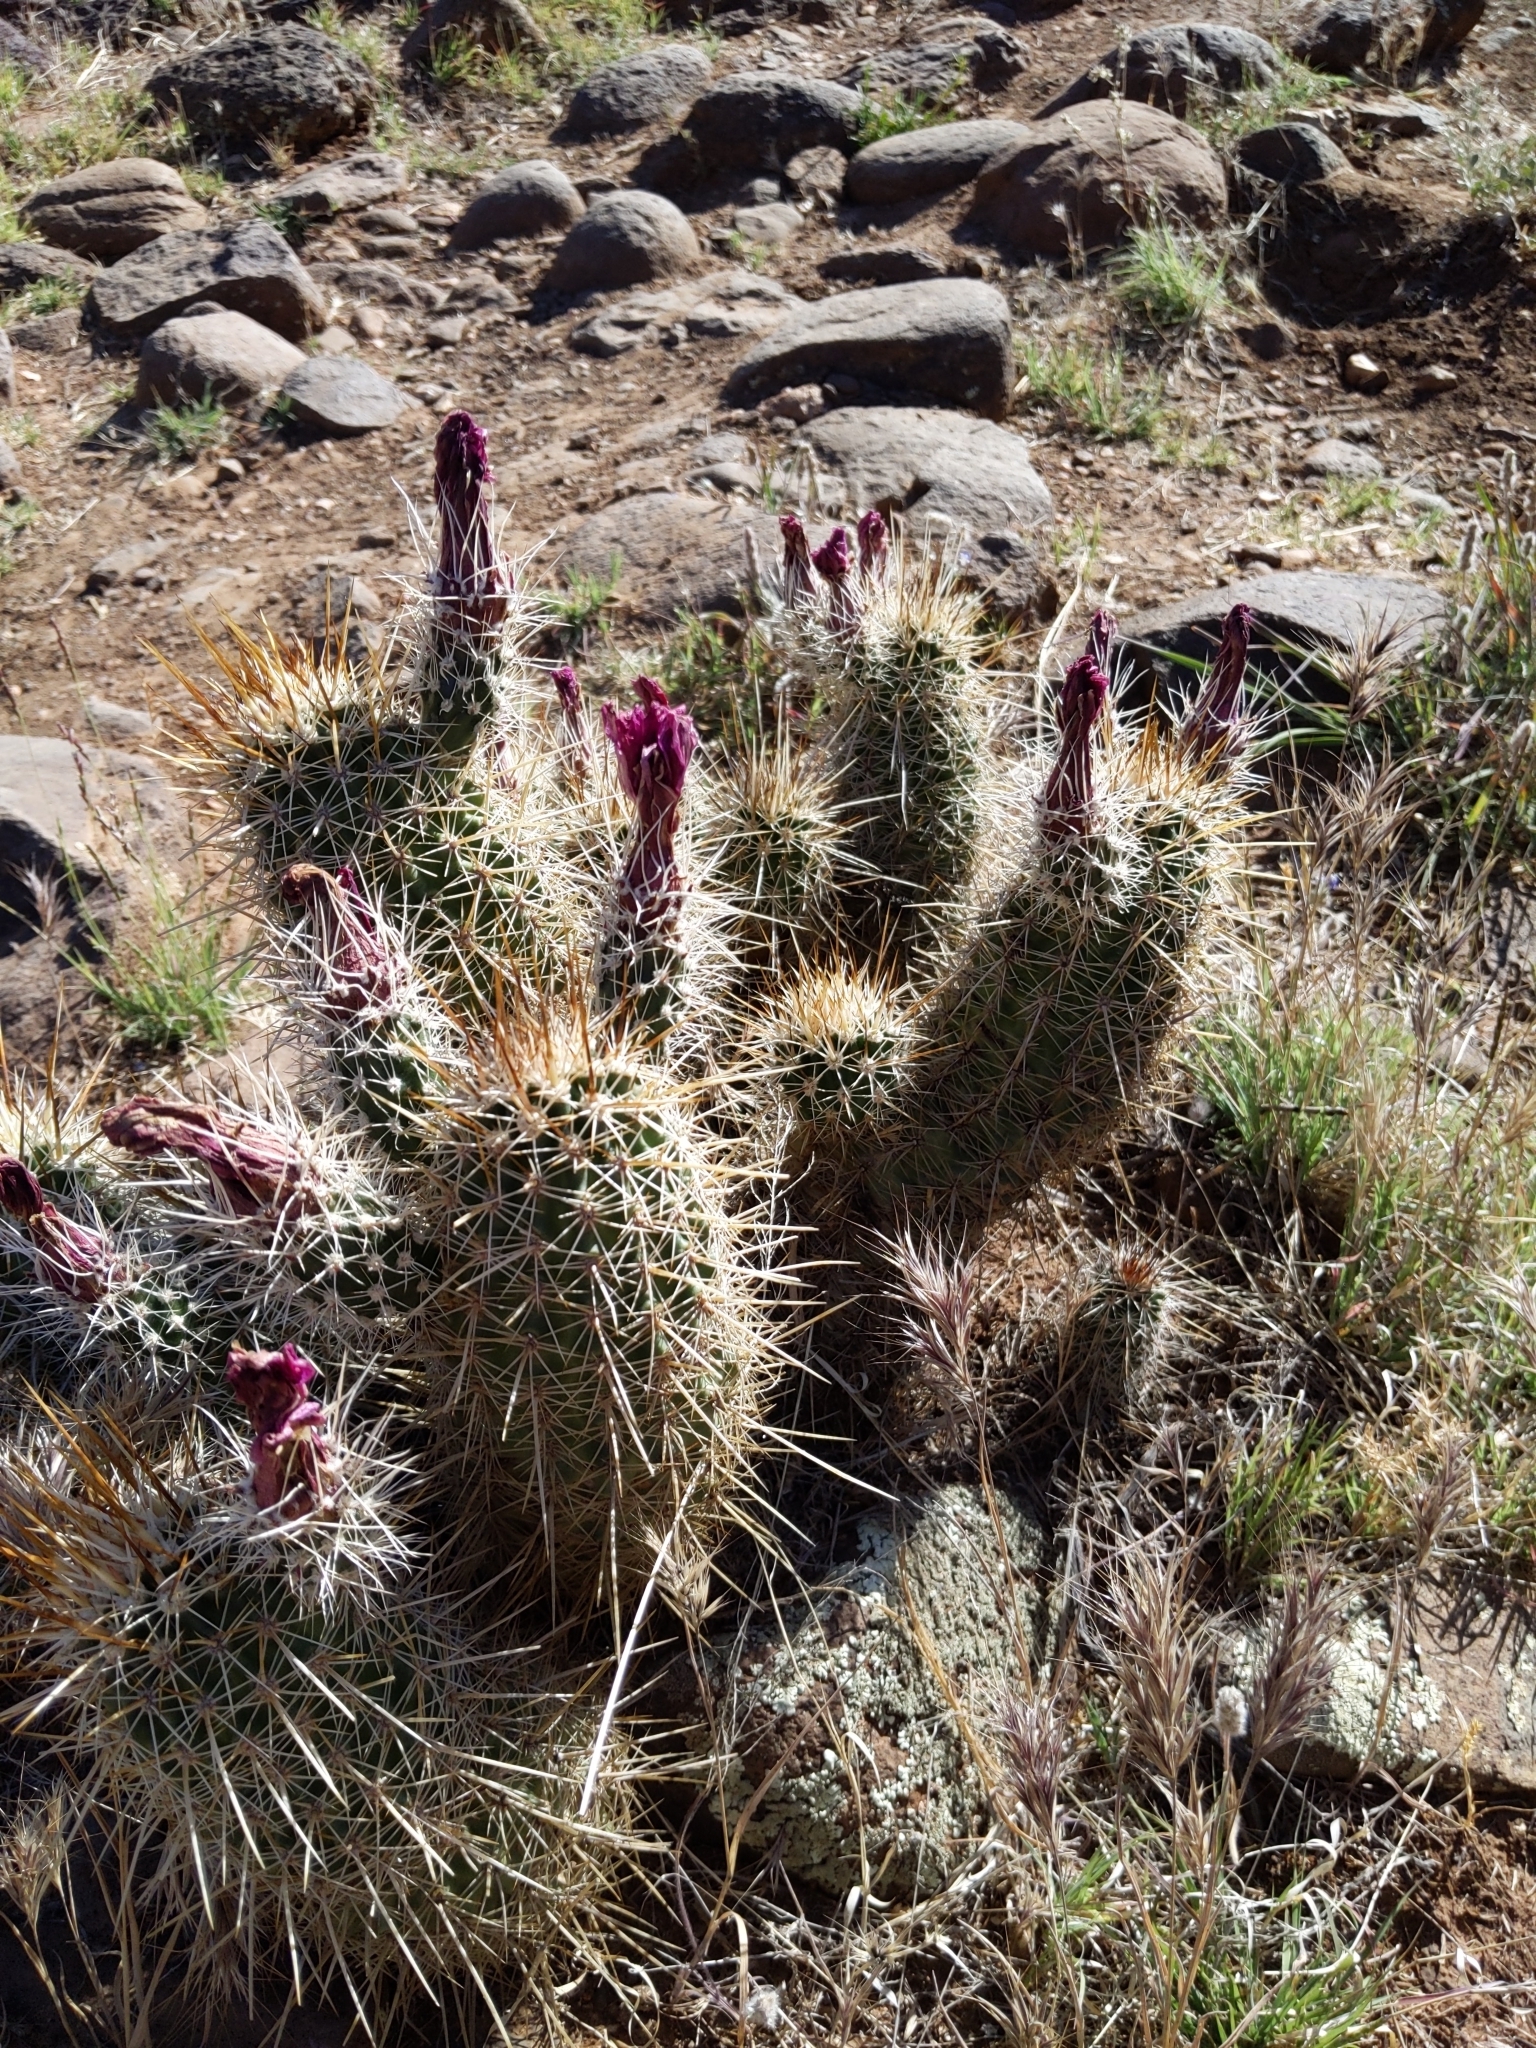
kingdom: Plantae
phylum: Tracheophyta
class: Magnoliopsida
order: Caryophyllales
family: Cactaceae
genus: Echinocereus
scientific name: Echinocereus fasciculatus
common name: Bundle hedgehog
